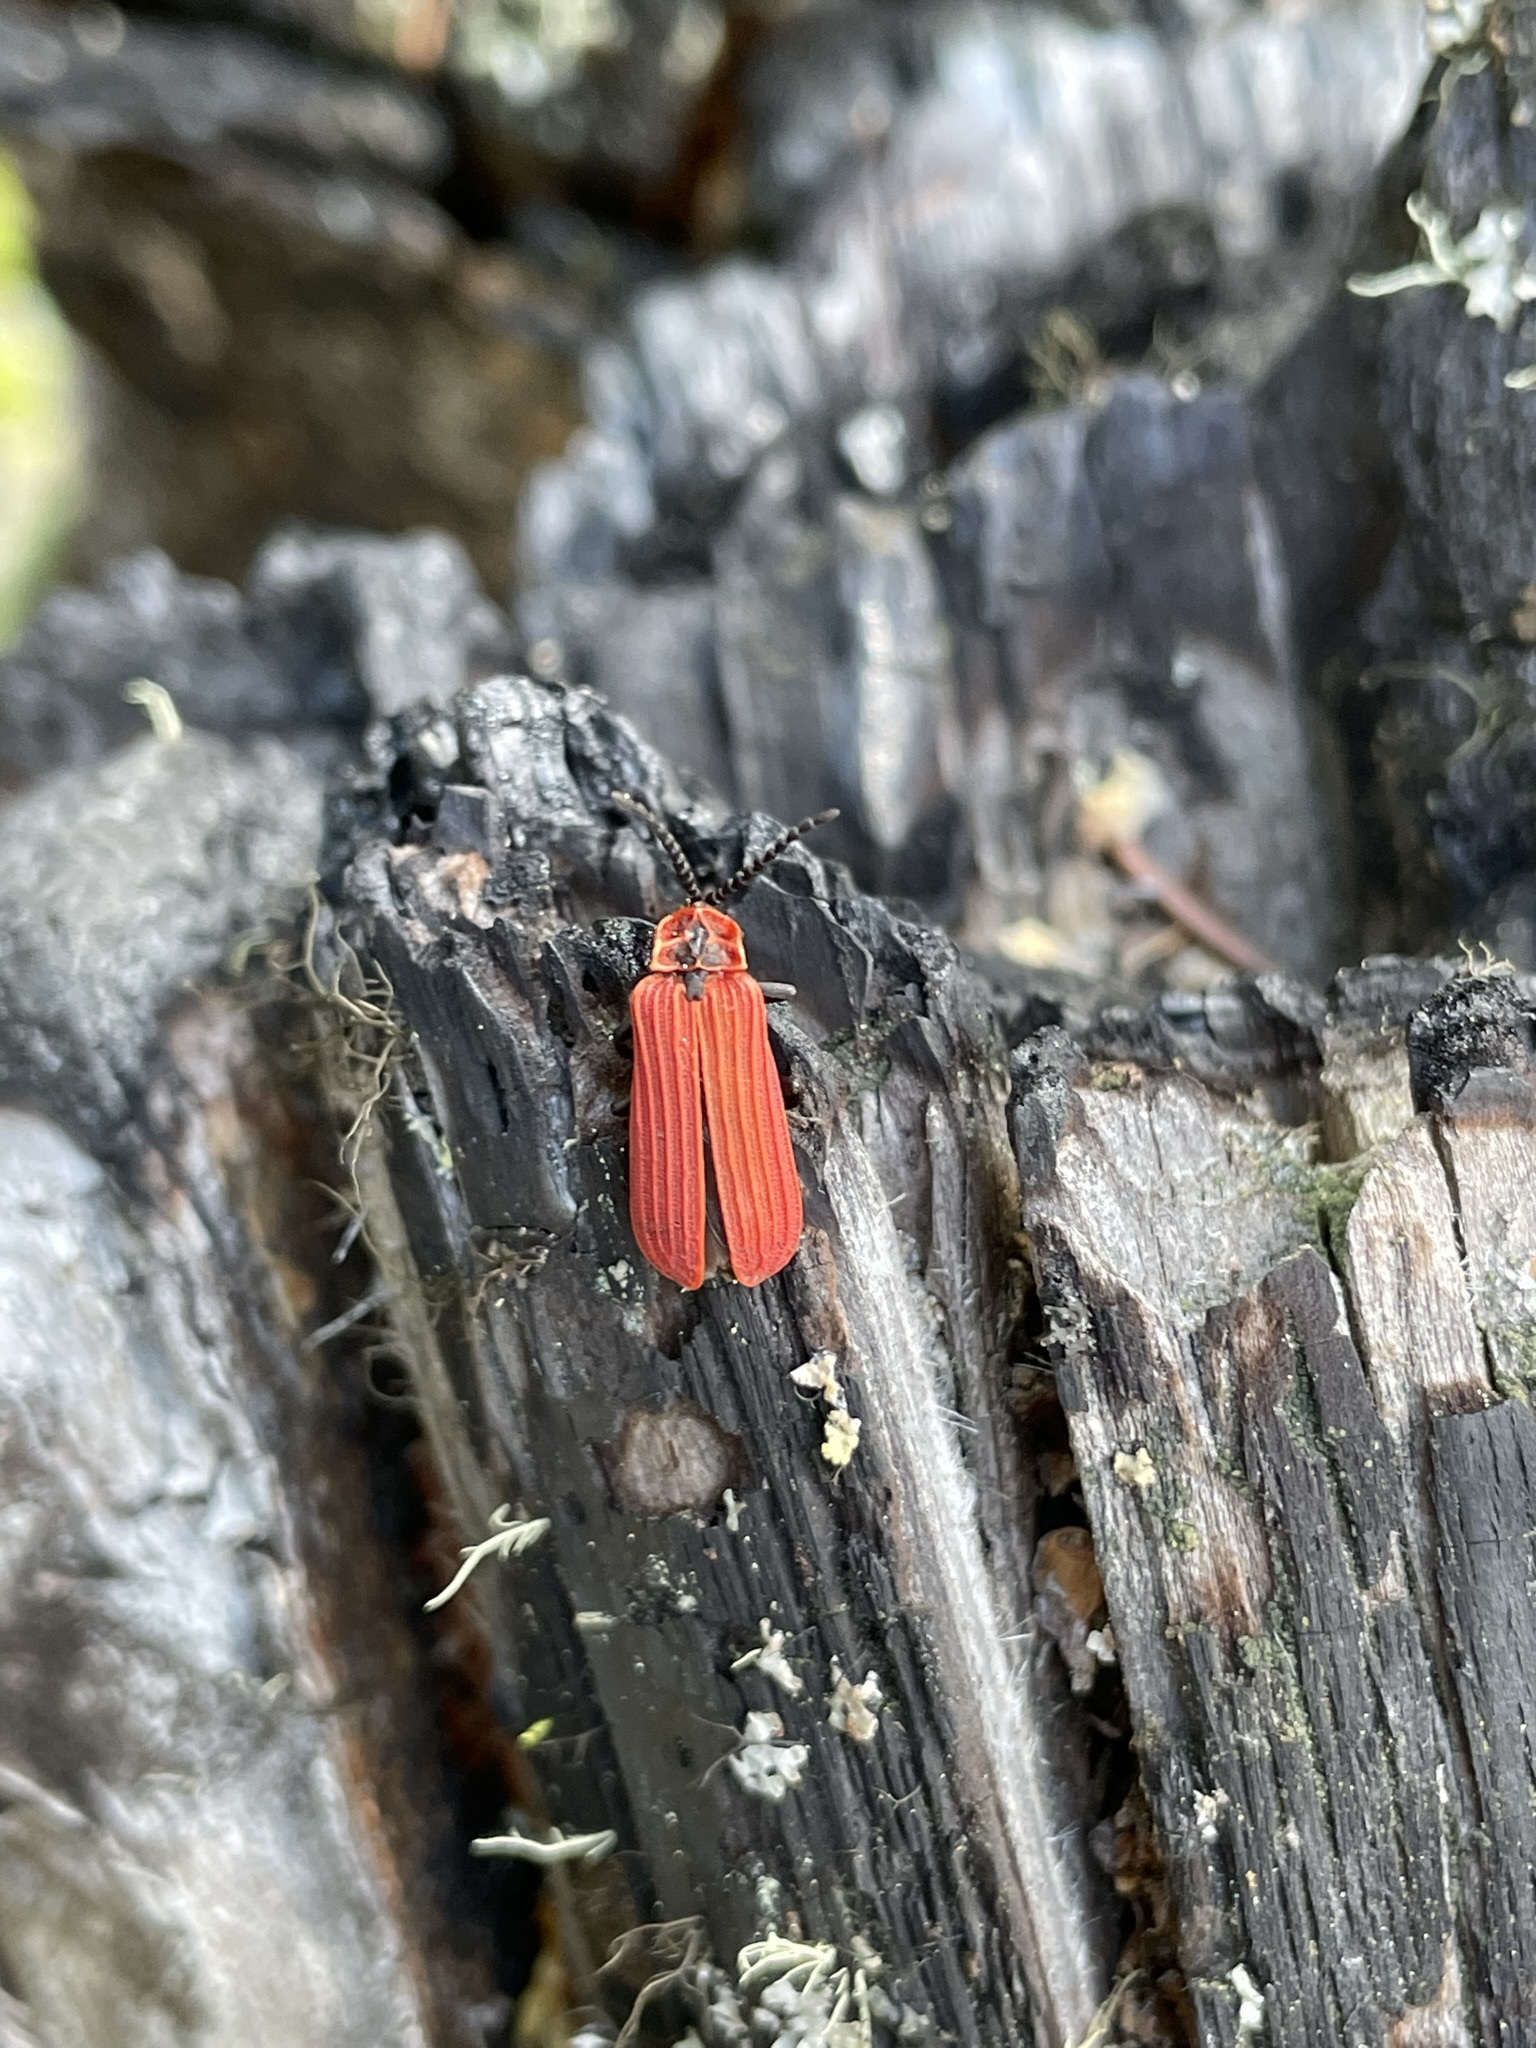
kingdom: Animalia
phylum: Arthropoda
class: Insecta
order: Coleoptera
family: Lycidae
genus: Dictyoptera
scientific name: Dictyoptera aurora
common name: Golden net-winged beetle
